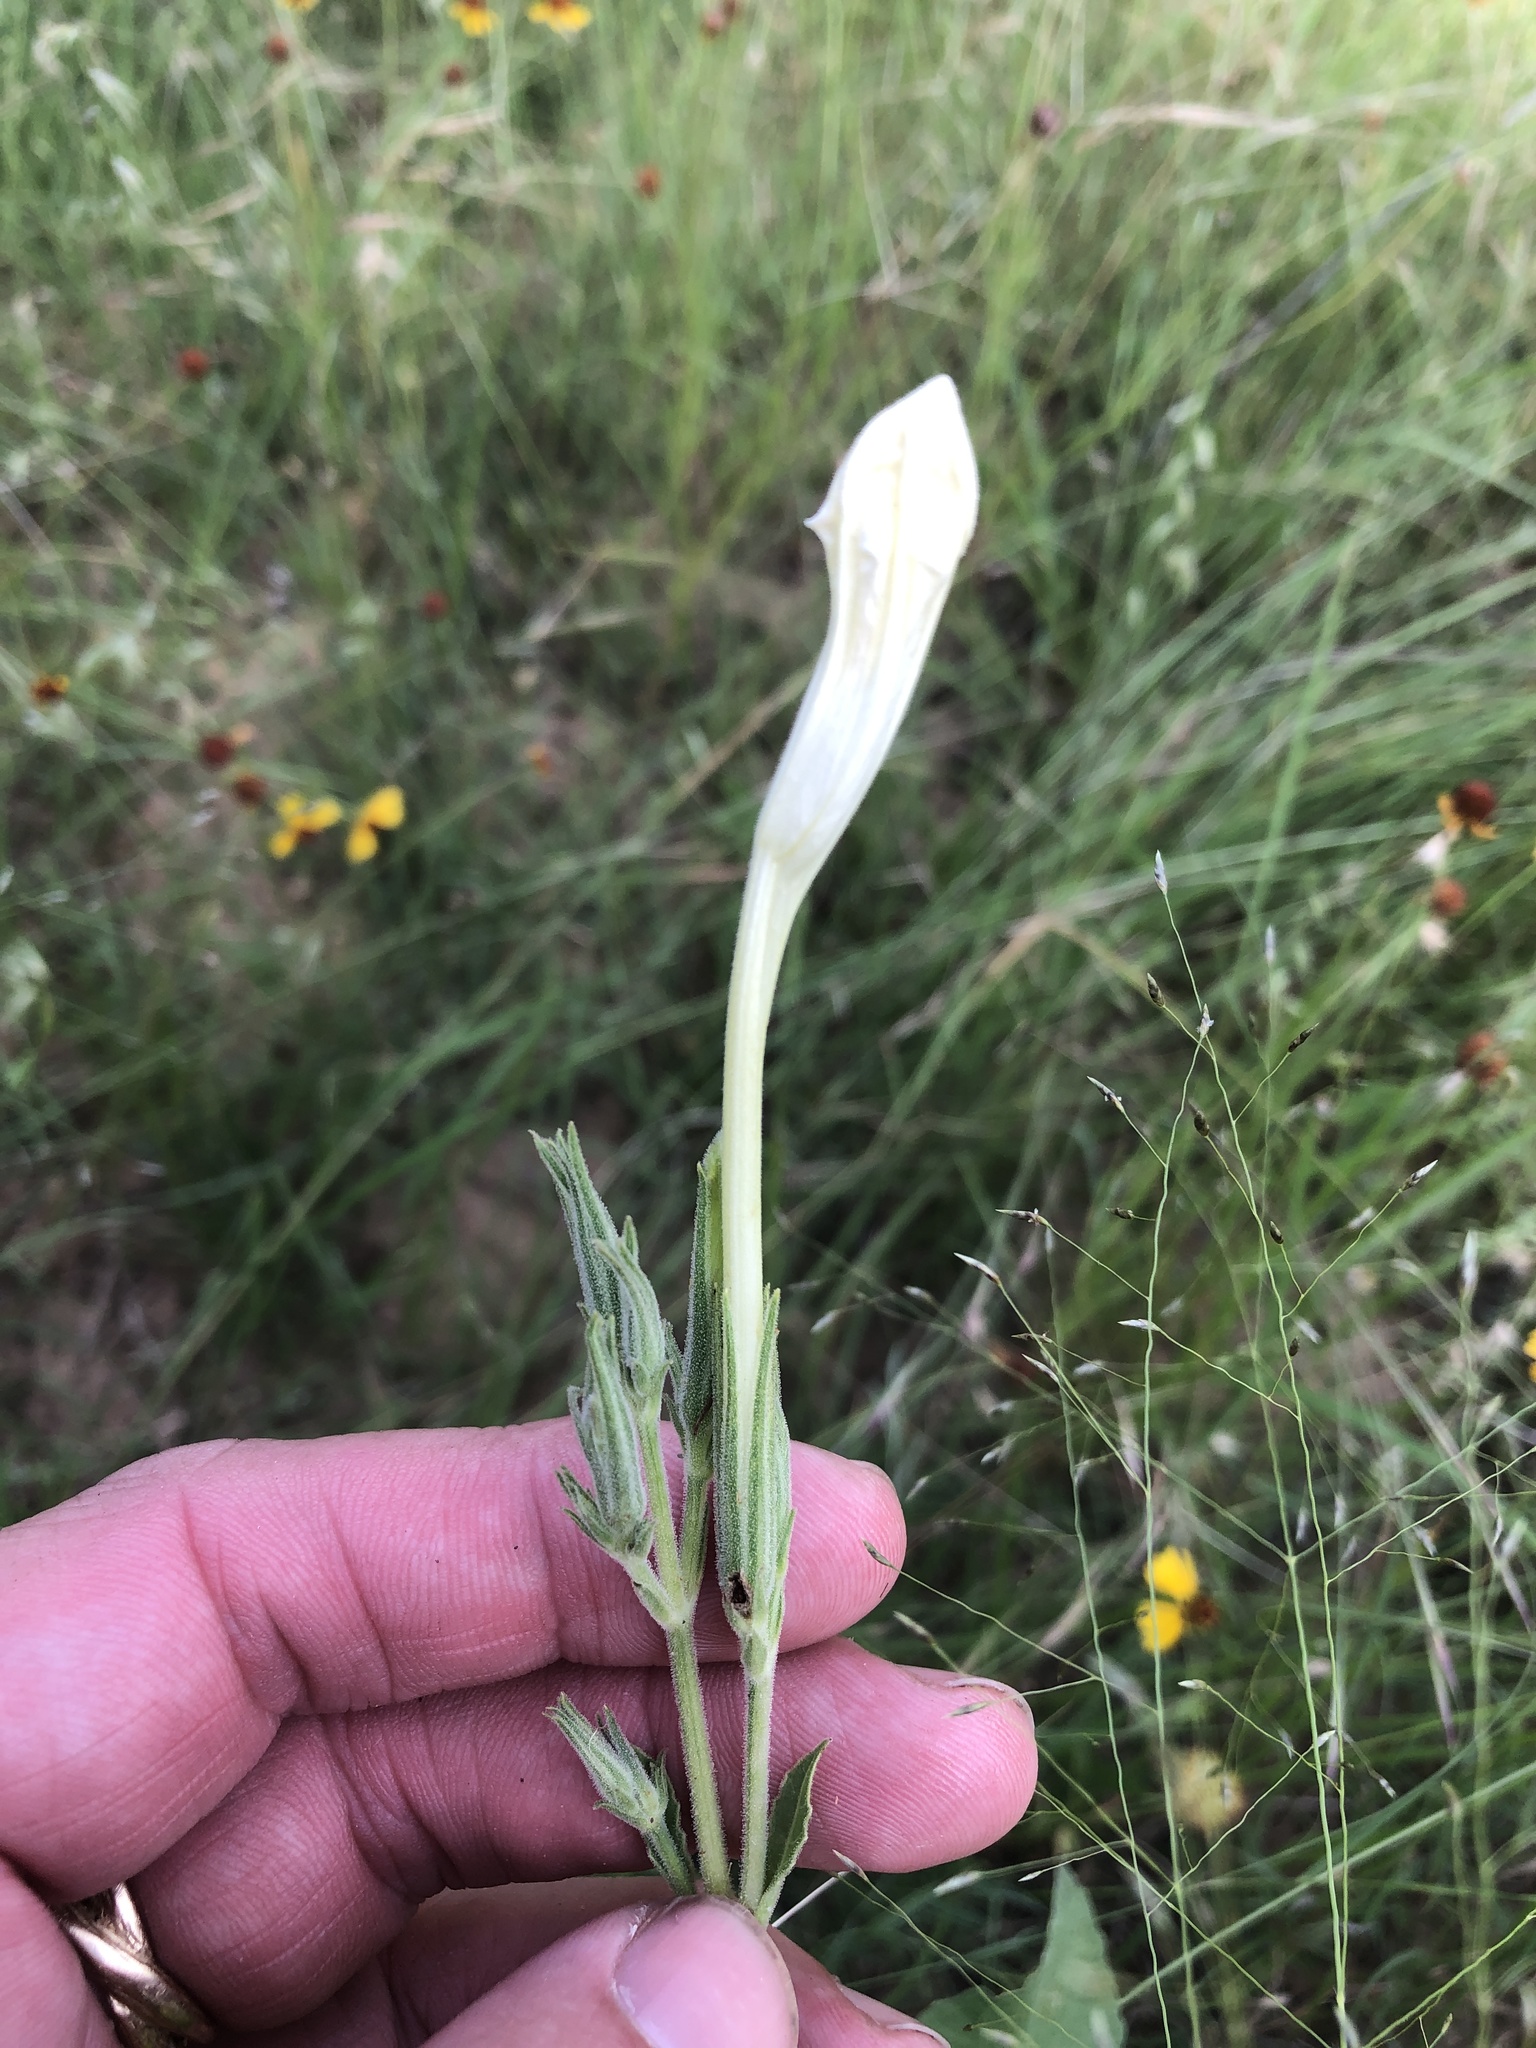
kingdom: Plantae
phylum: Tracheophyta
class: Magnoliopsida
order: Lamiales
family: Acanthaceae
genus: Ruellia
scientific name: Ruellia metziae
